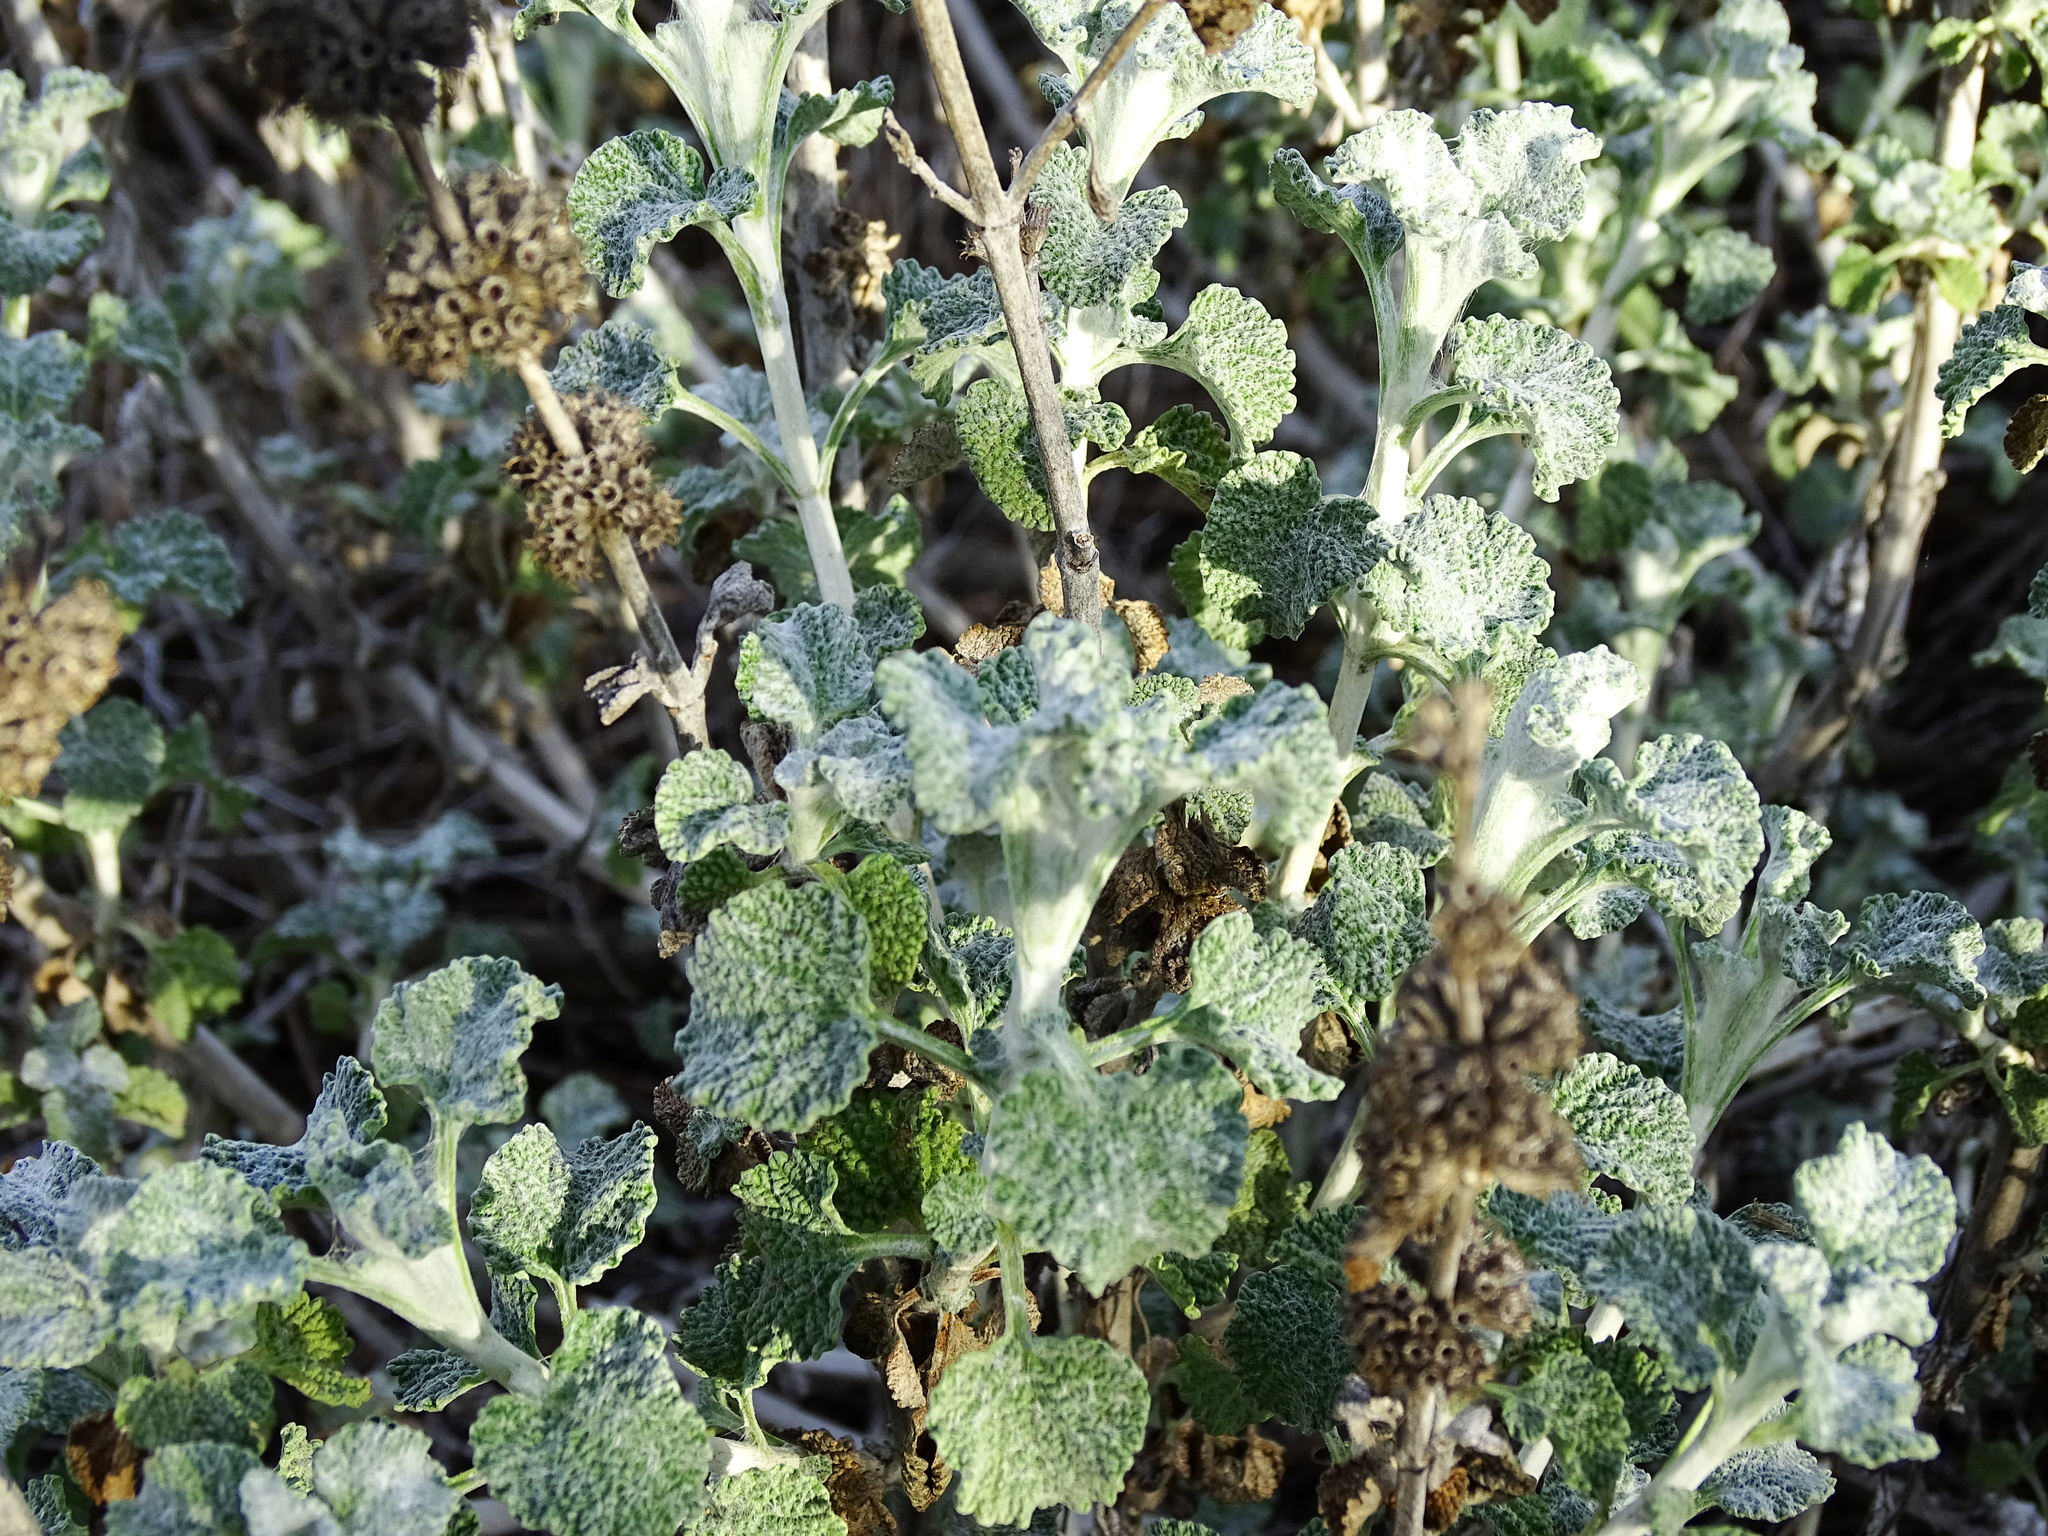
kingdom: Plantae
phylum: Tracheophyta
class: Magnoliopsida
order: Lamiales
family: Lamiaceae
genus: Marrubium
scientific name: Marrubium vulgare
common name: Horehound
